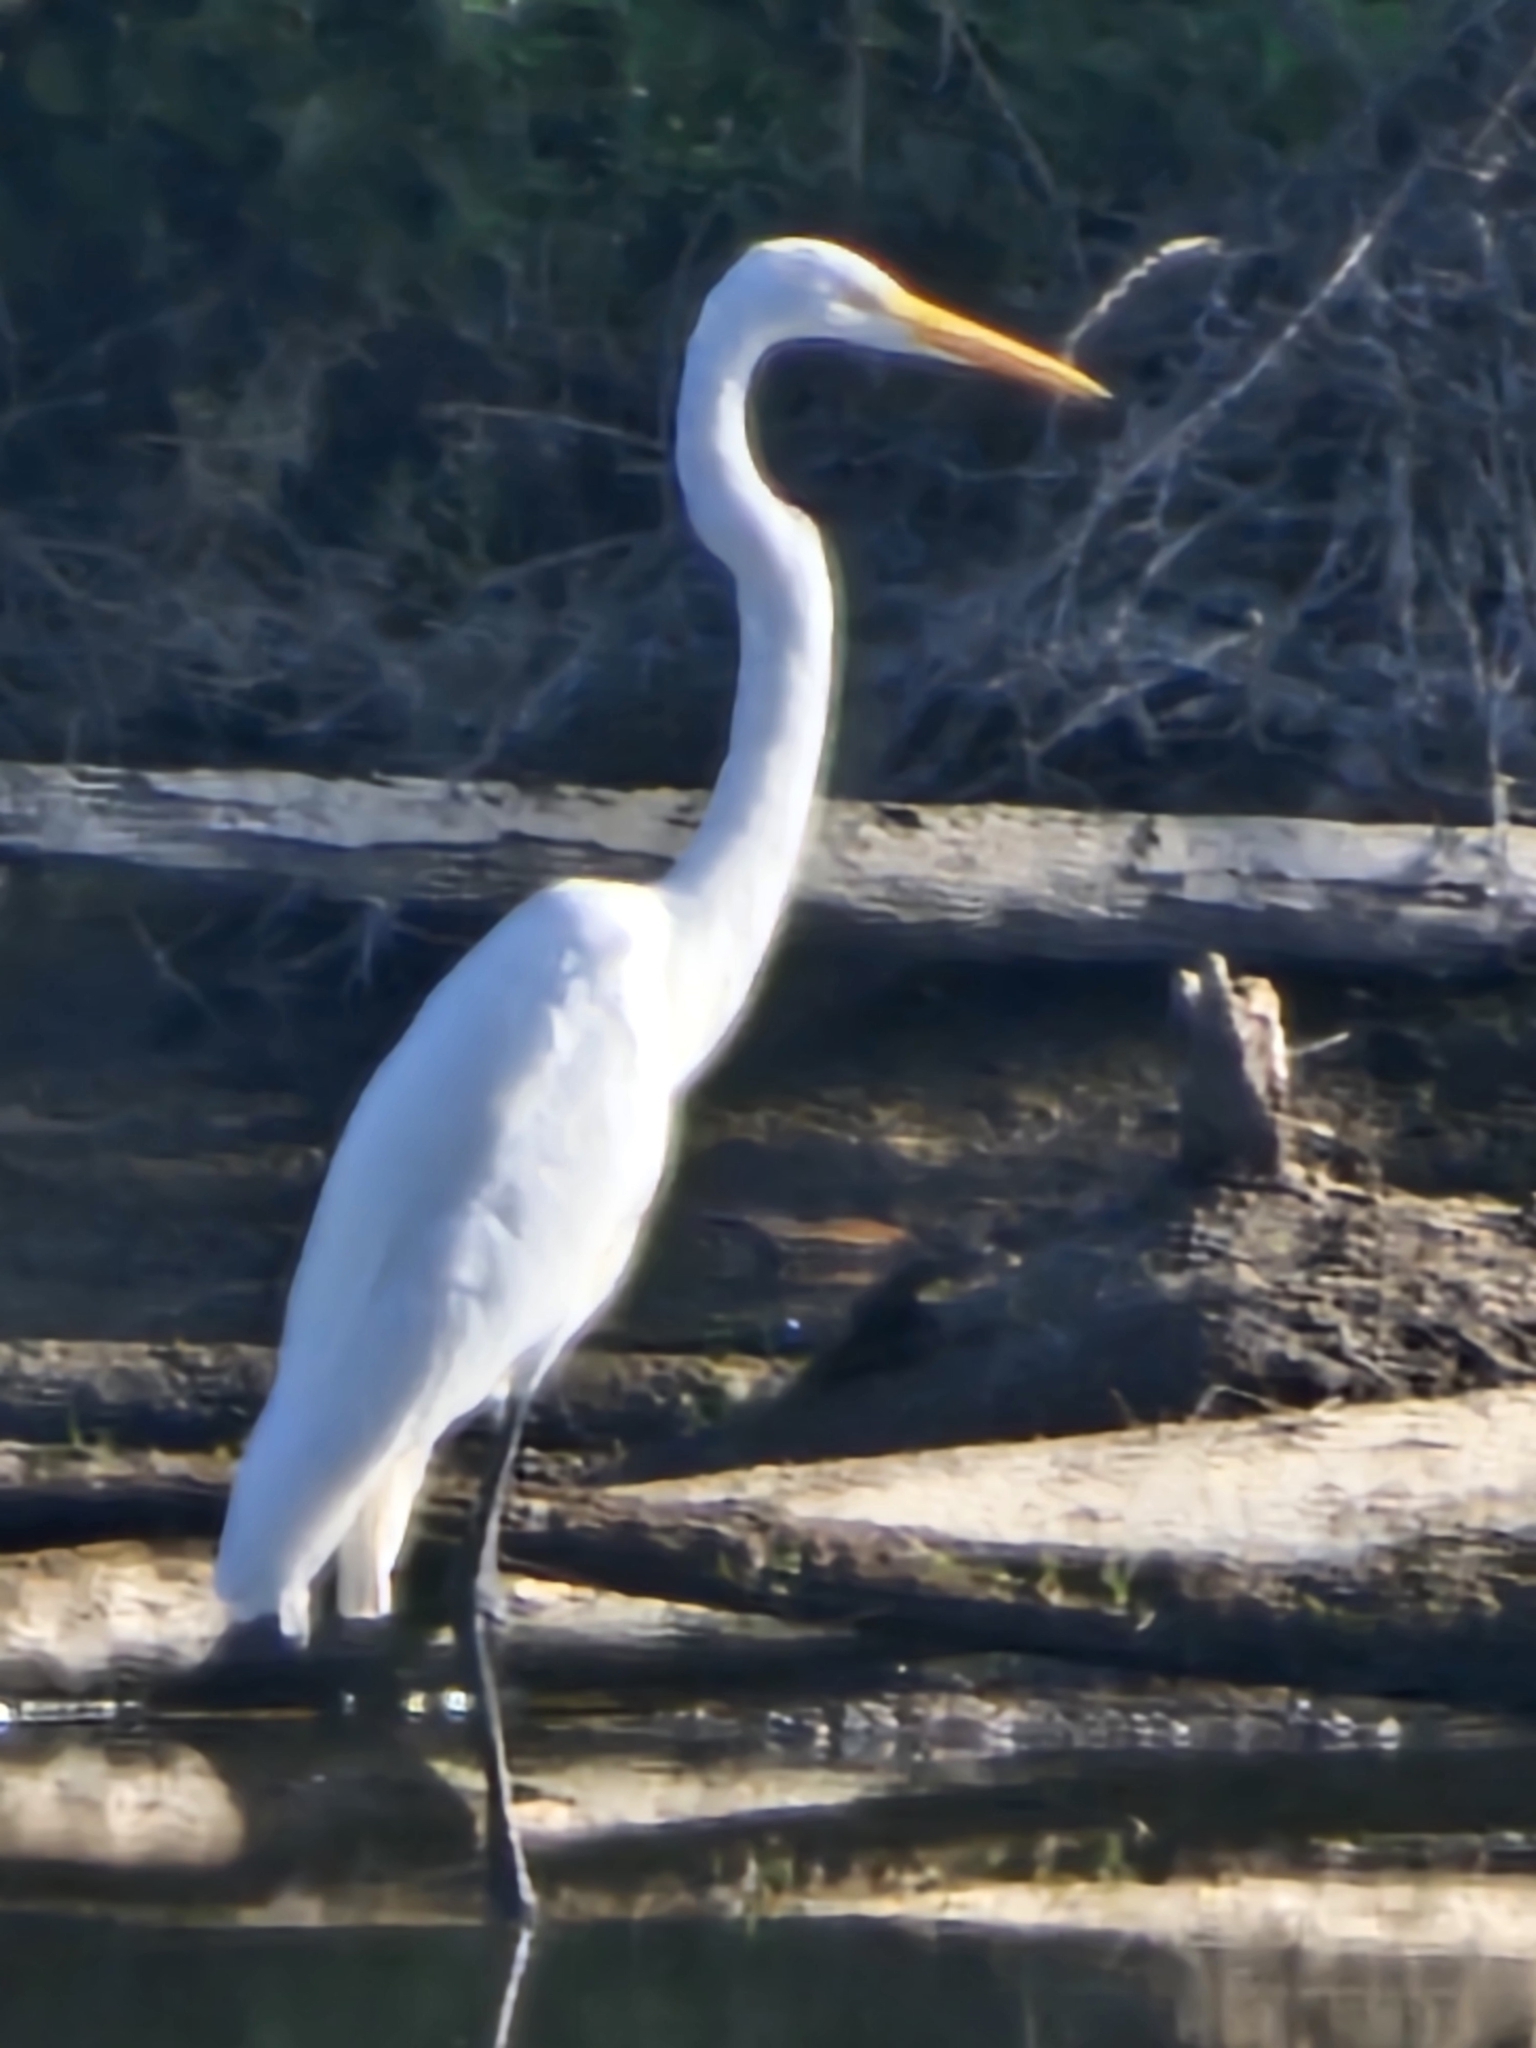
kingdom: Animalia
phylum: Chordata
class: Aves
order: Pelecaniformes
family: Ardeidae
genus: Ardea
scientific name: Ardea alba
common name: Great egret
